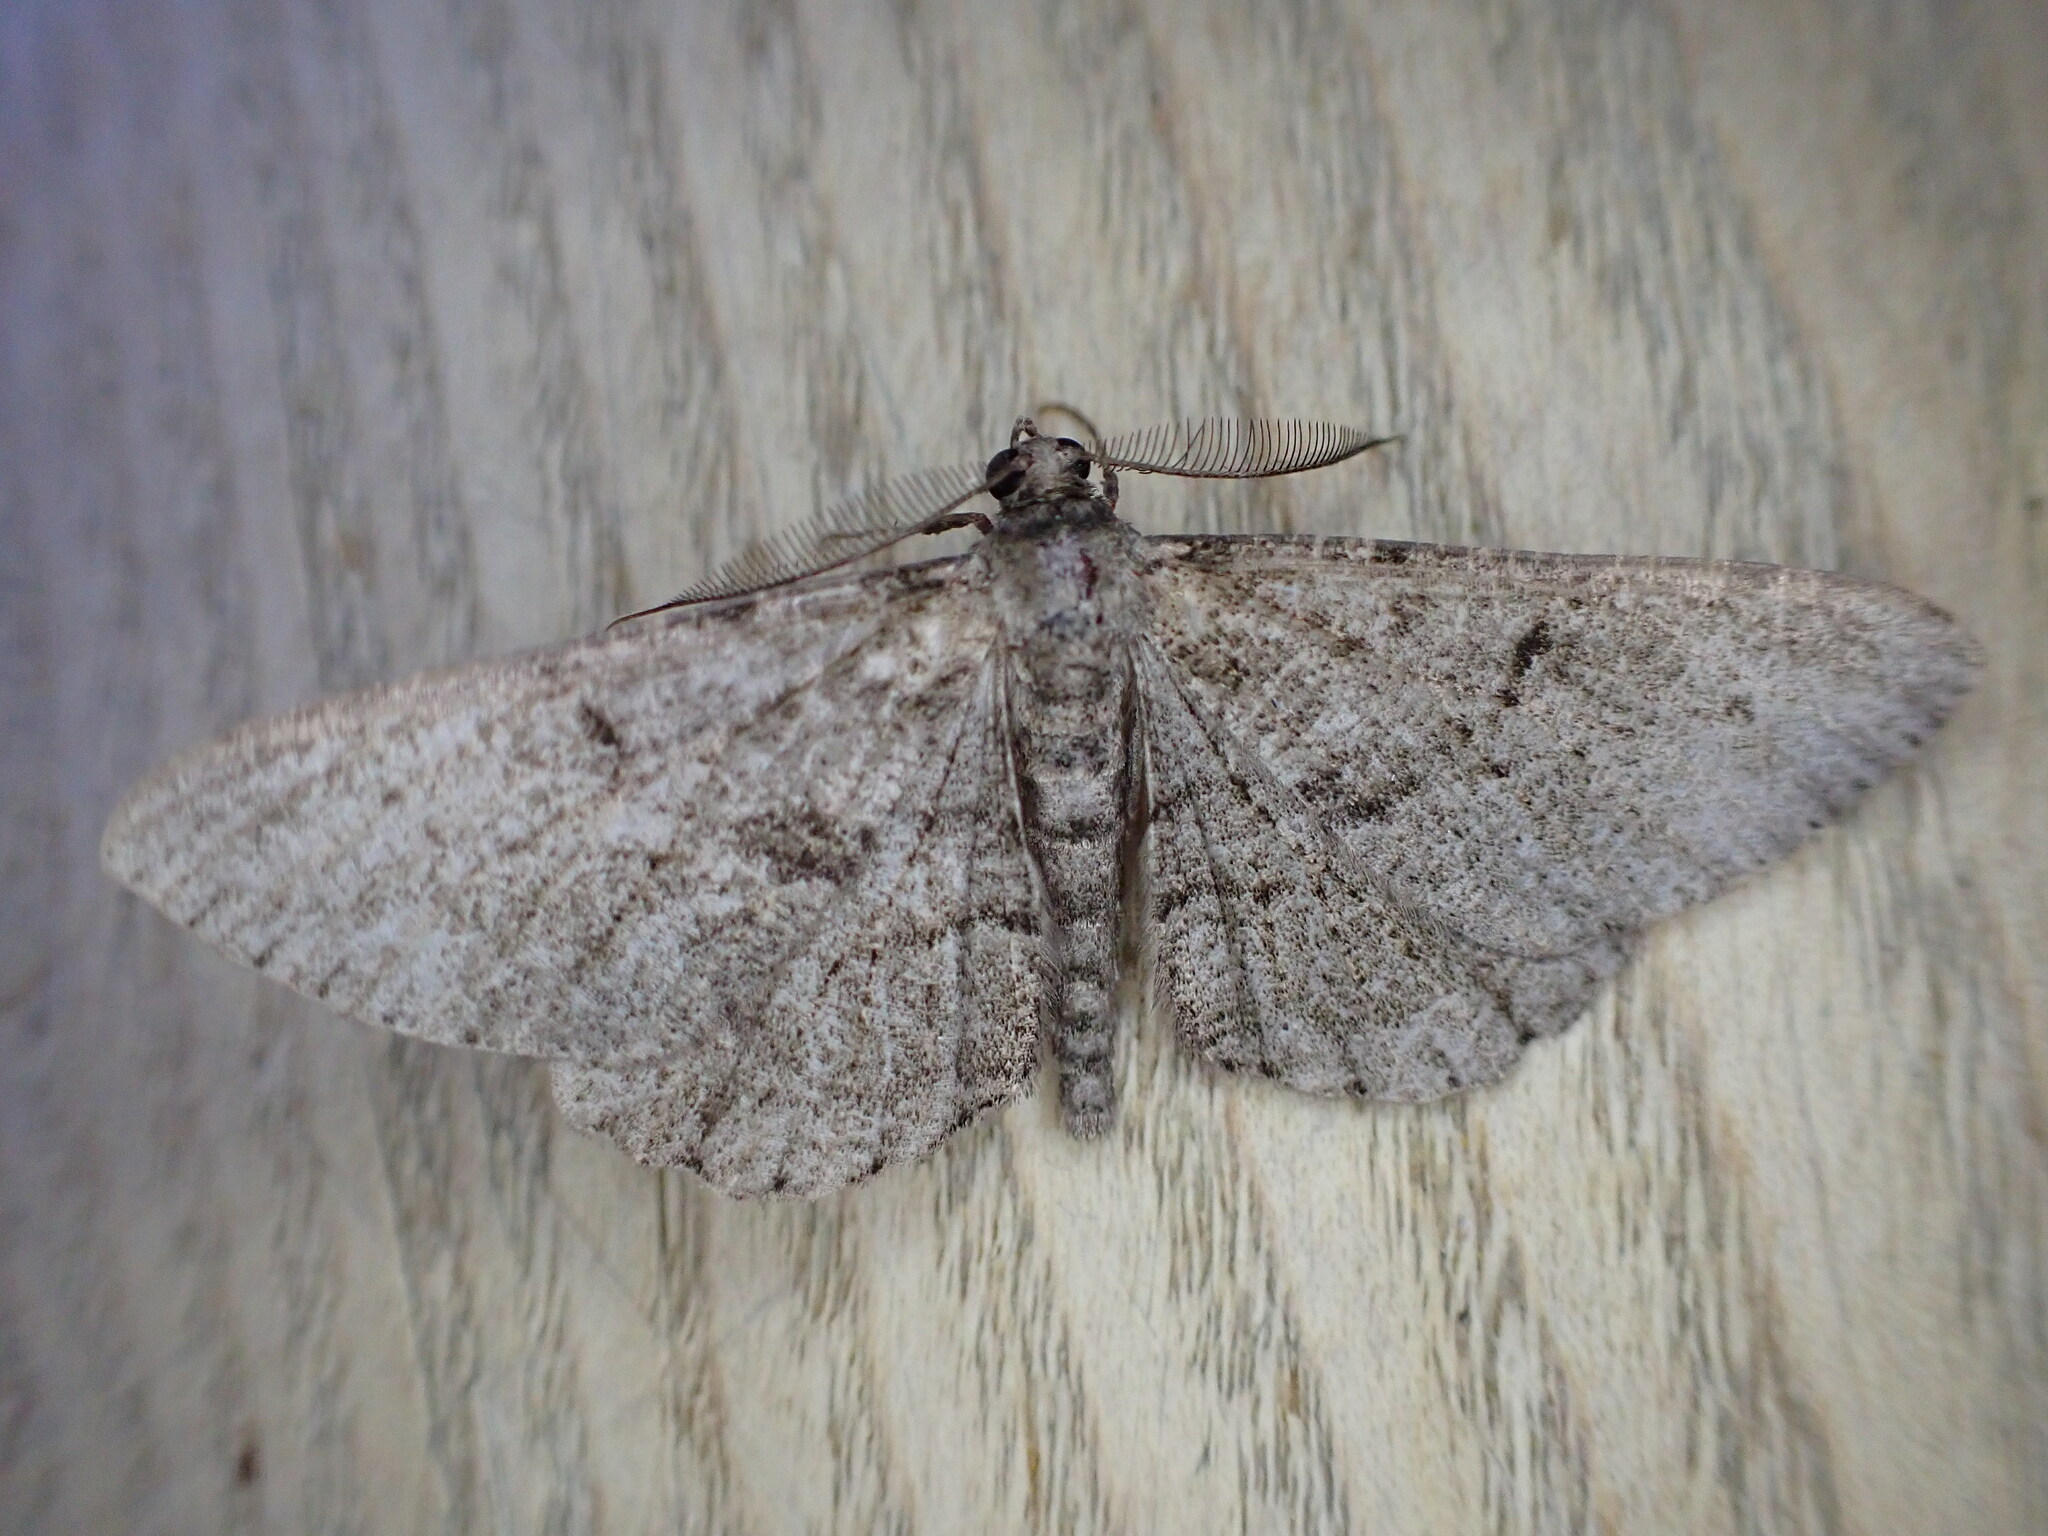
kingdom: Animalia
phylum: Arthropoda
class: Insecta
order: Lepidoptera
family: Geometridae
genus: Peribatodes
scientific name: Peribatodes rhomboidaria
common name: Willow beauty
